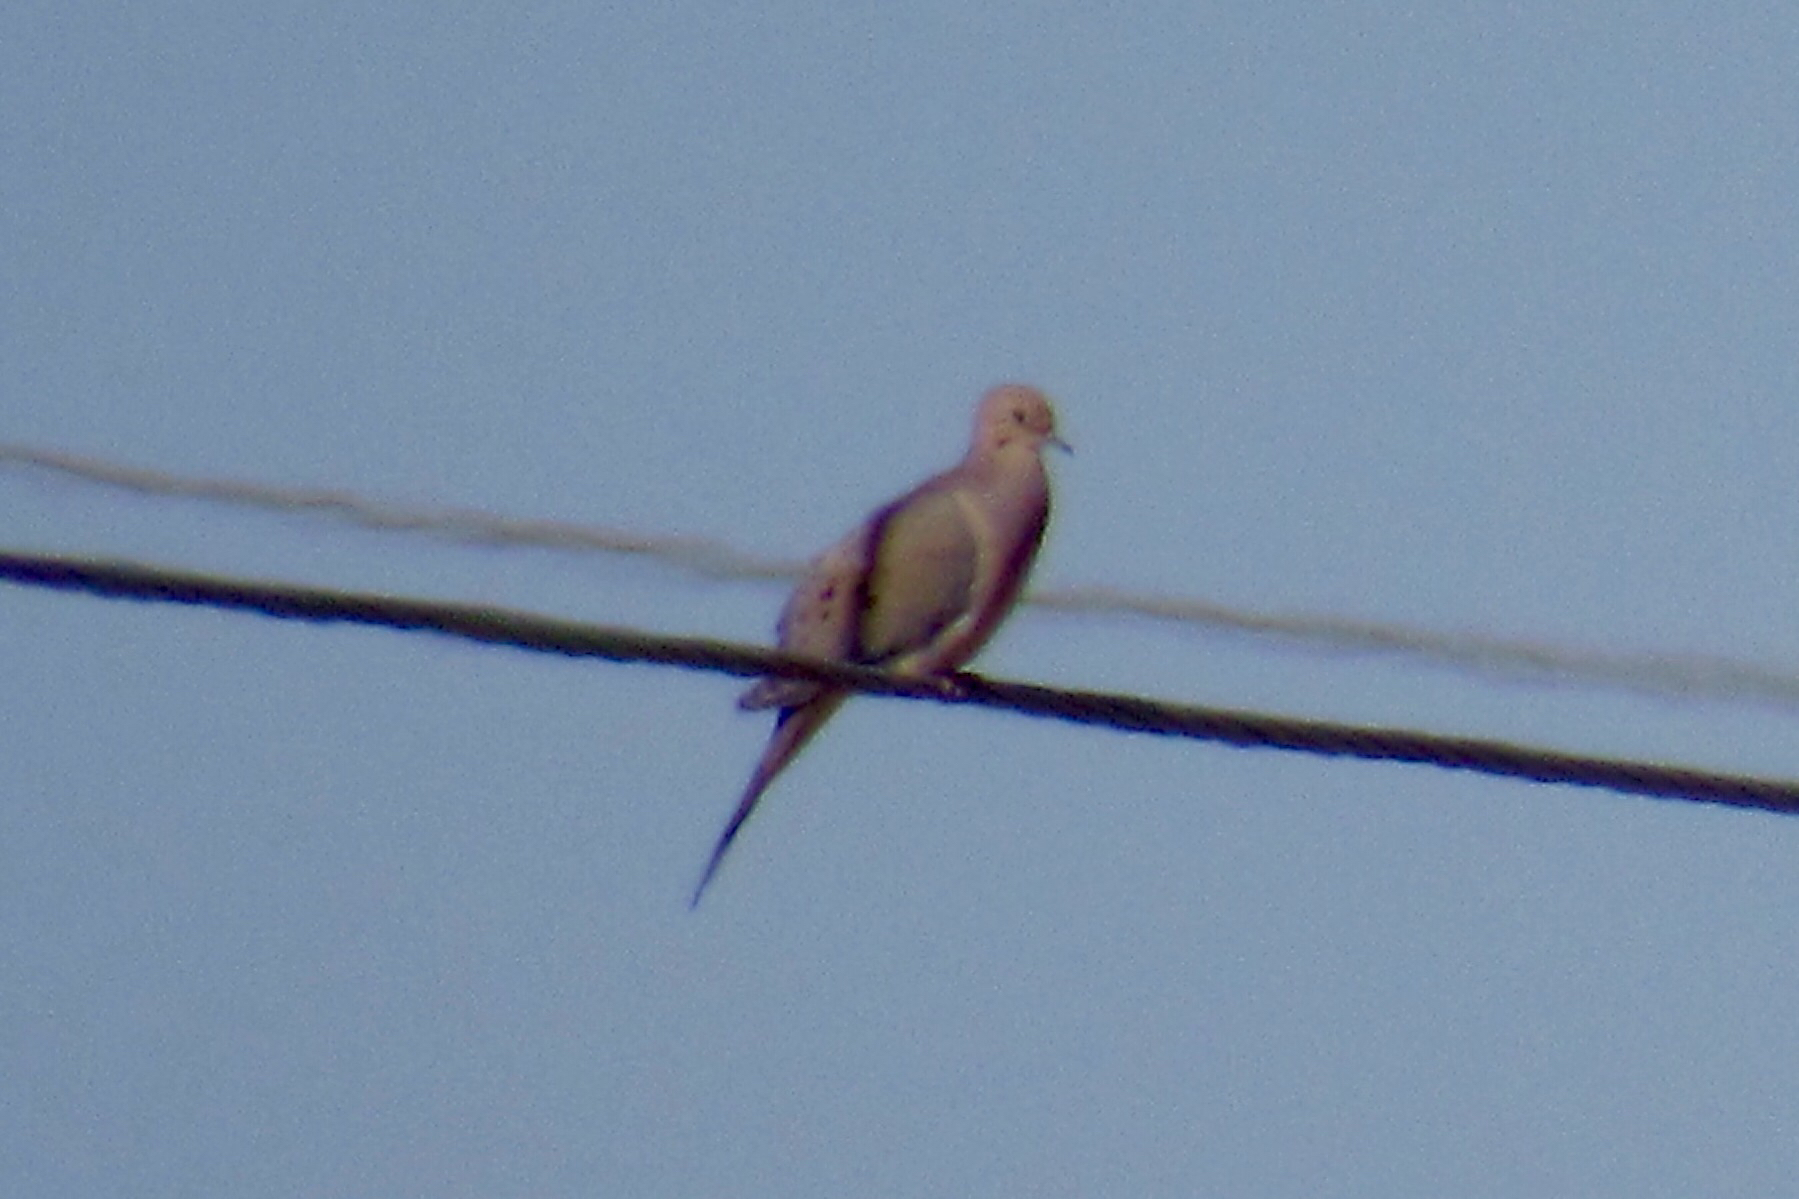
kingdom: Animalia
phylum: Chordata
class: Aves
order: Columbiformes
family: Columbidae
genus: Zenaida
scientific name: Zenaida macroura
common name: Mourning dove
